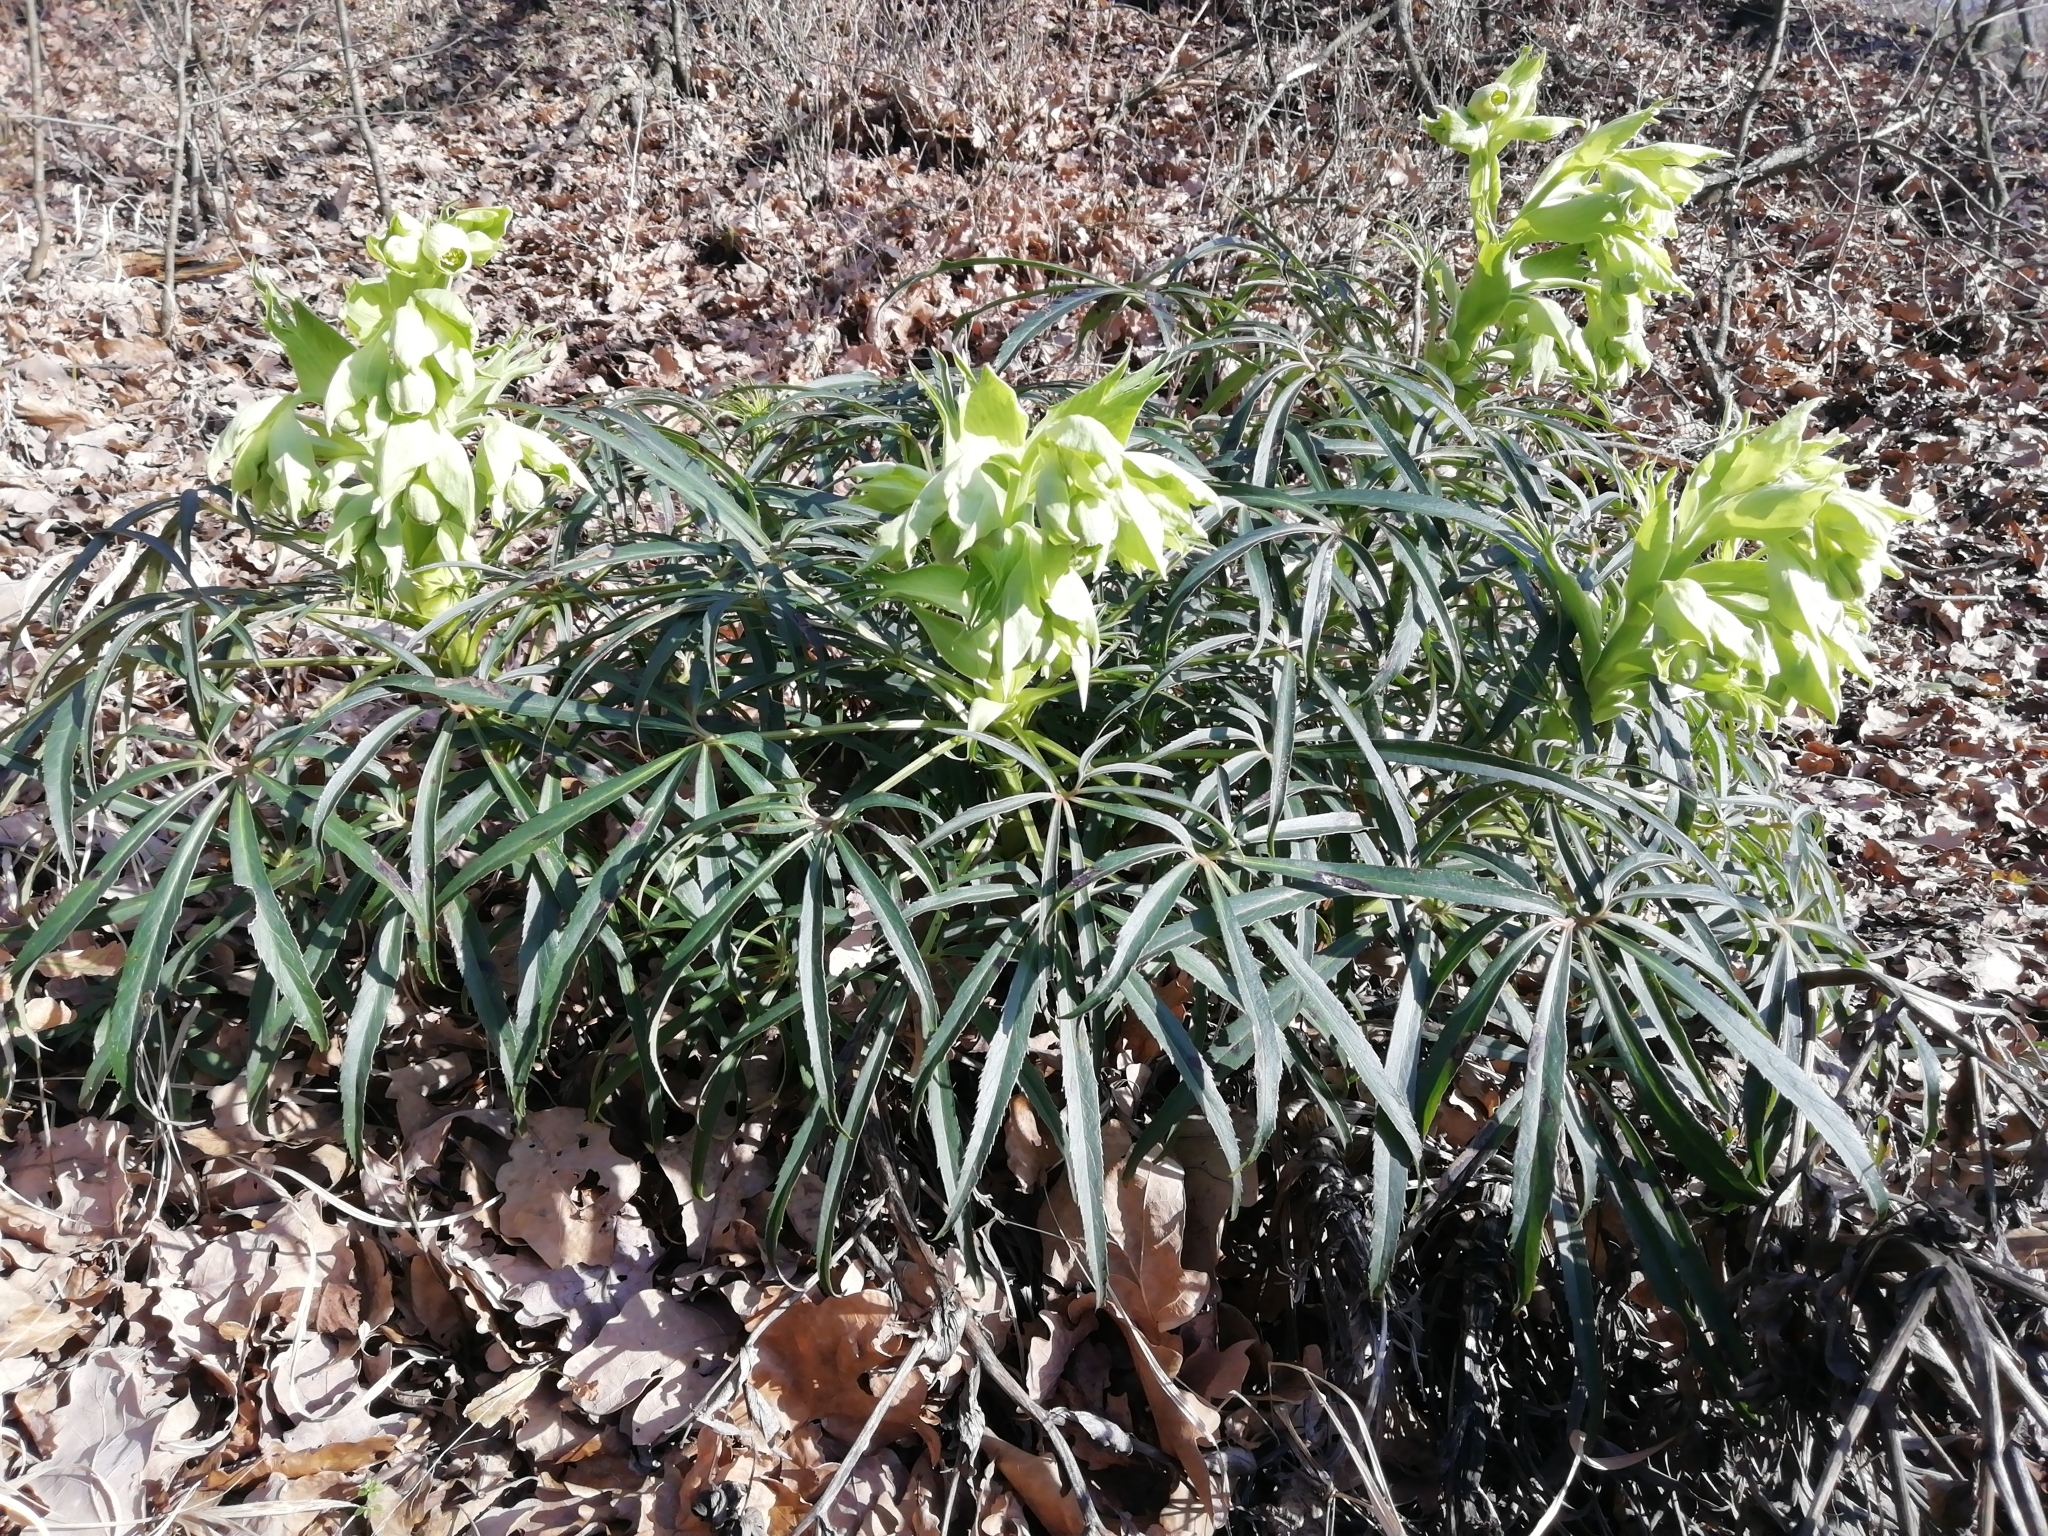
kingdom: Plantae
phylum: Tracheophyta
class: Magnoliopsida
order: Ranunculales
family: Ranunculaceae
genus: Helleborus
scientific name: Helleborus foetidus
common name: Stinking hellebore
